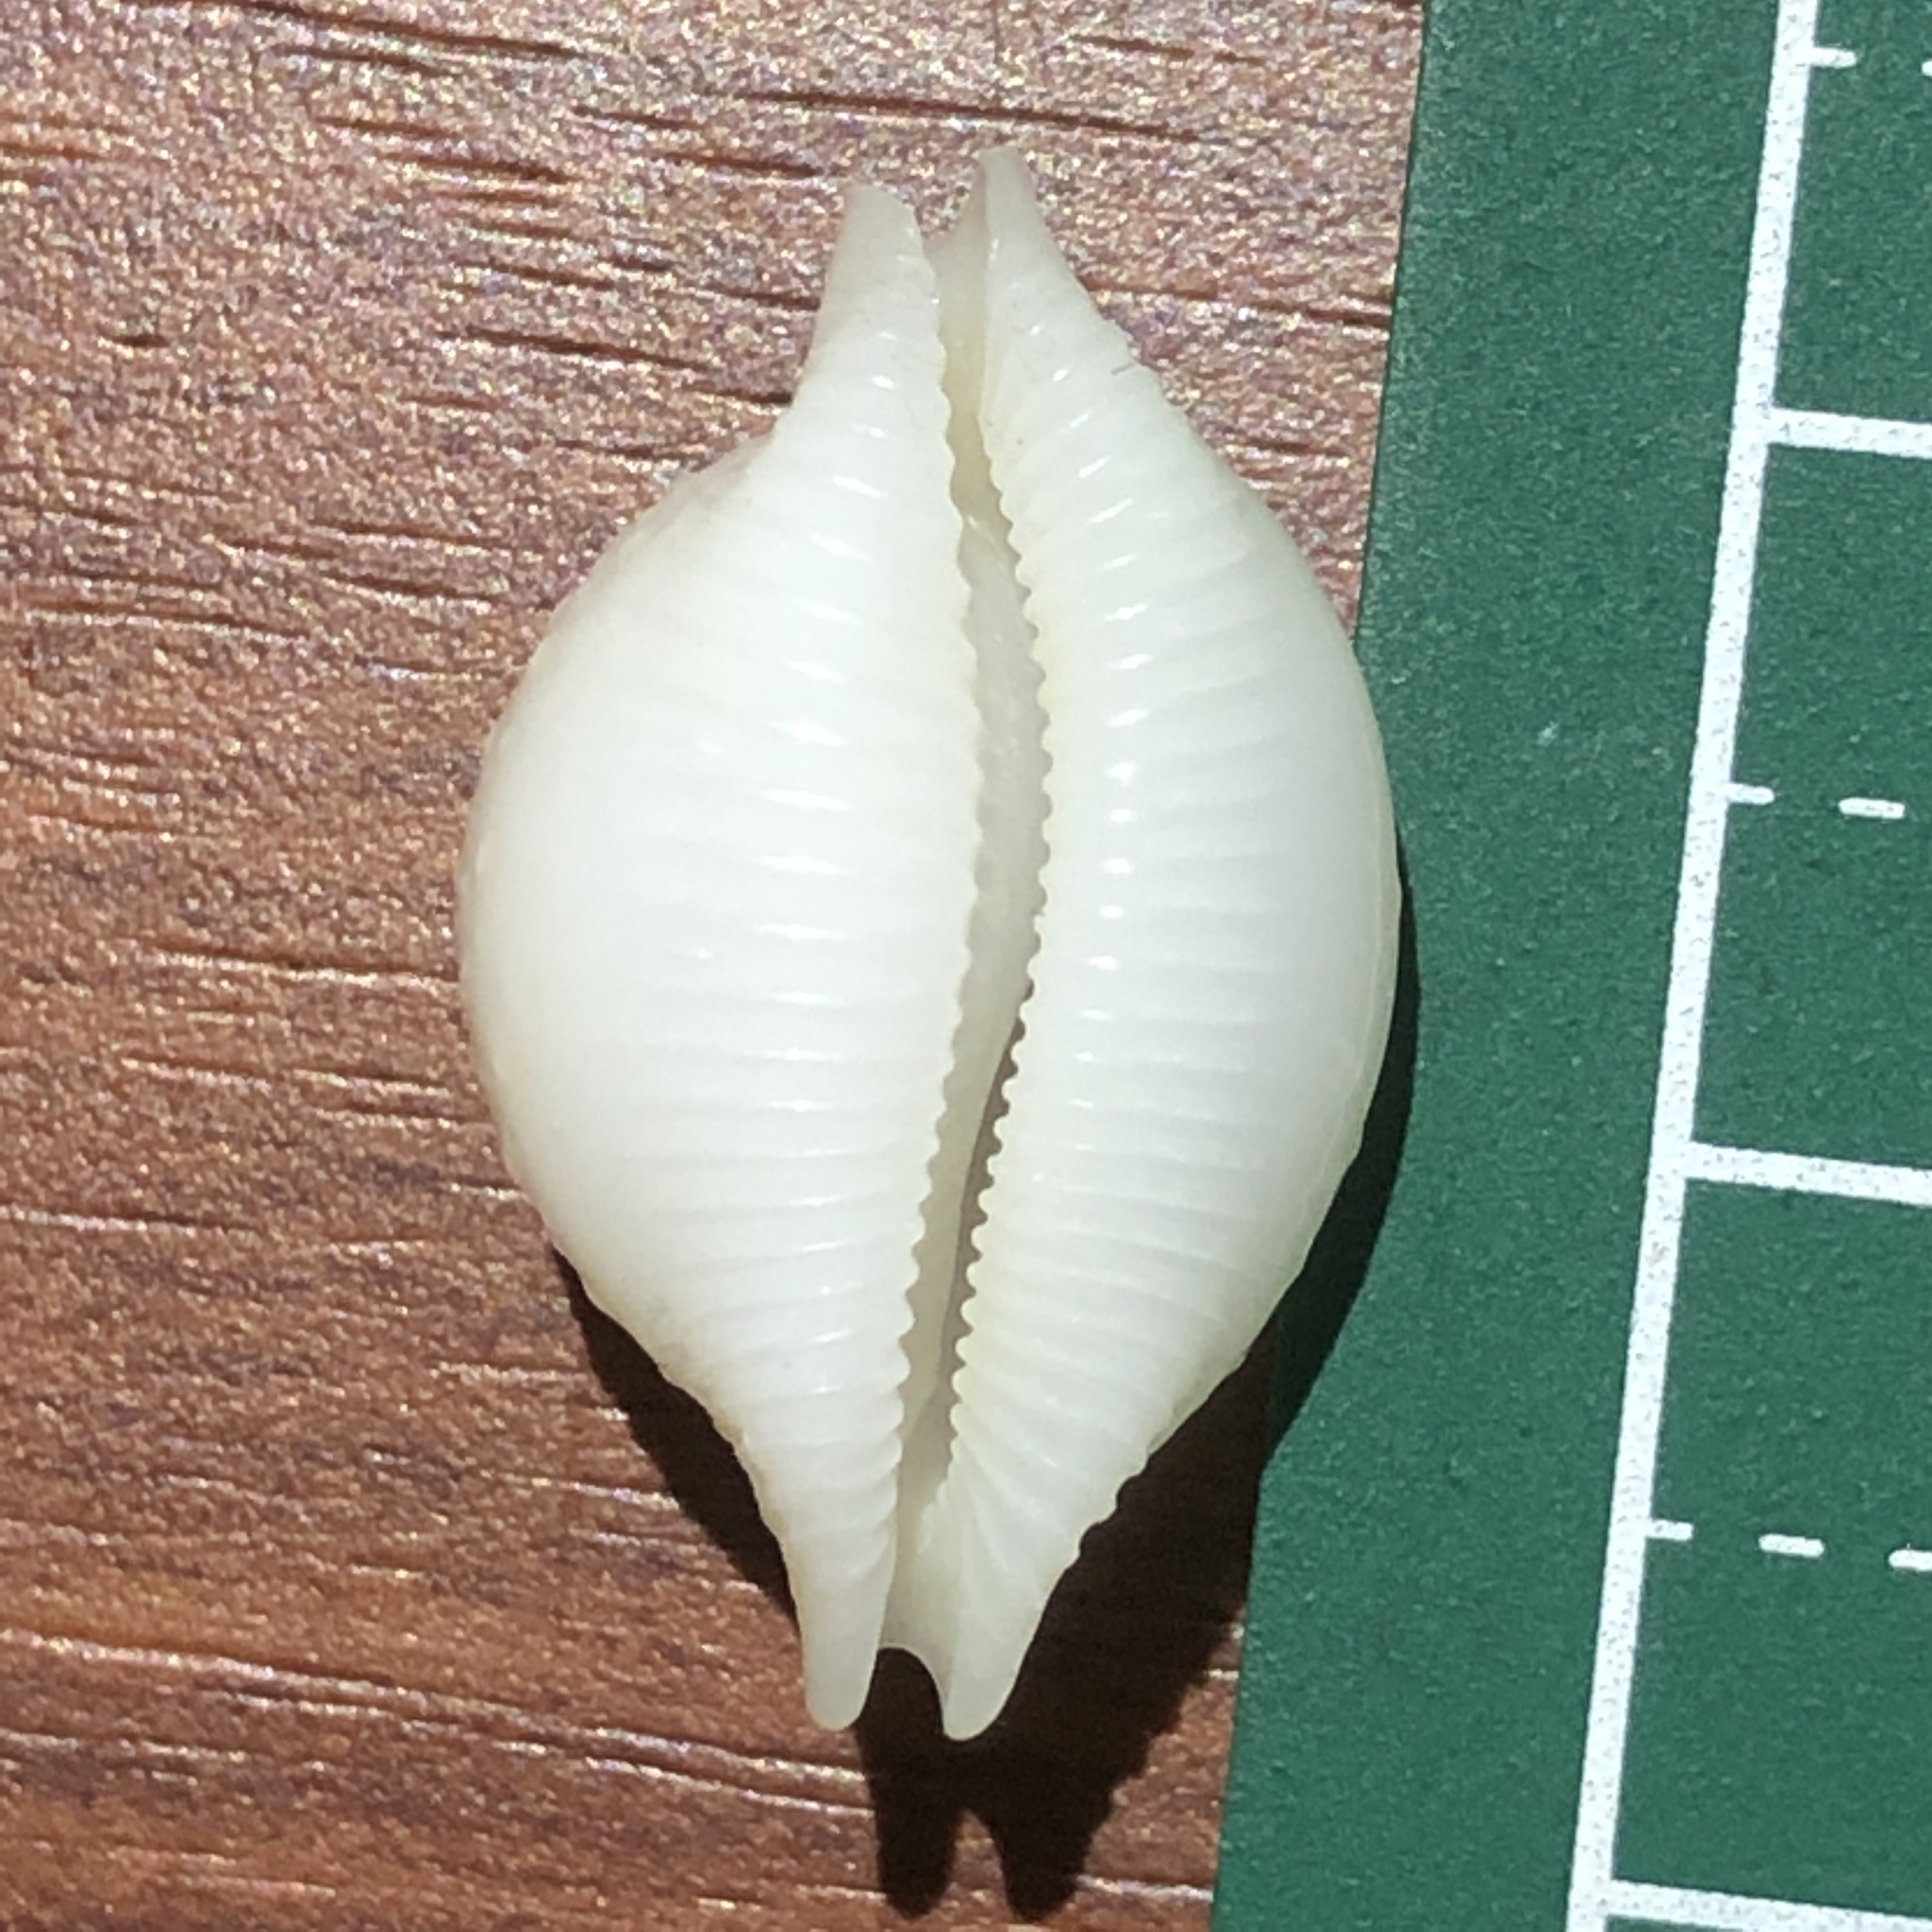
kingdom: Animalia
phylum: Mollusca
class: Gastropoda
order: Littorinimorpha
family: Cypraeidae
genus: Pustularia
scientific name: Pustularia cicercula
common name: Chick-pea cowrie
